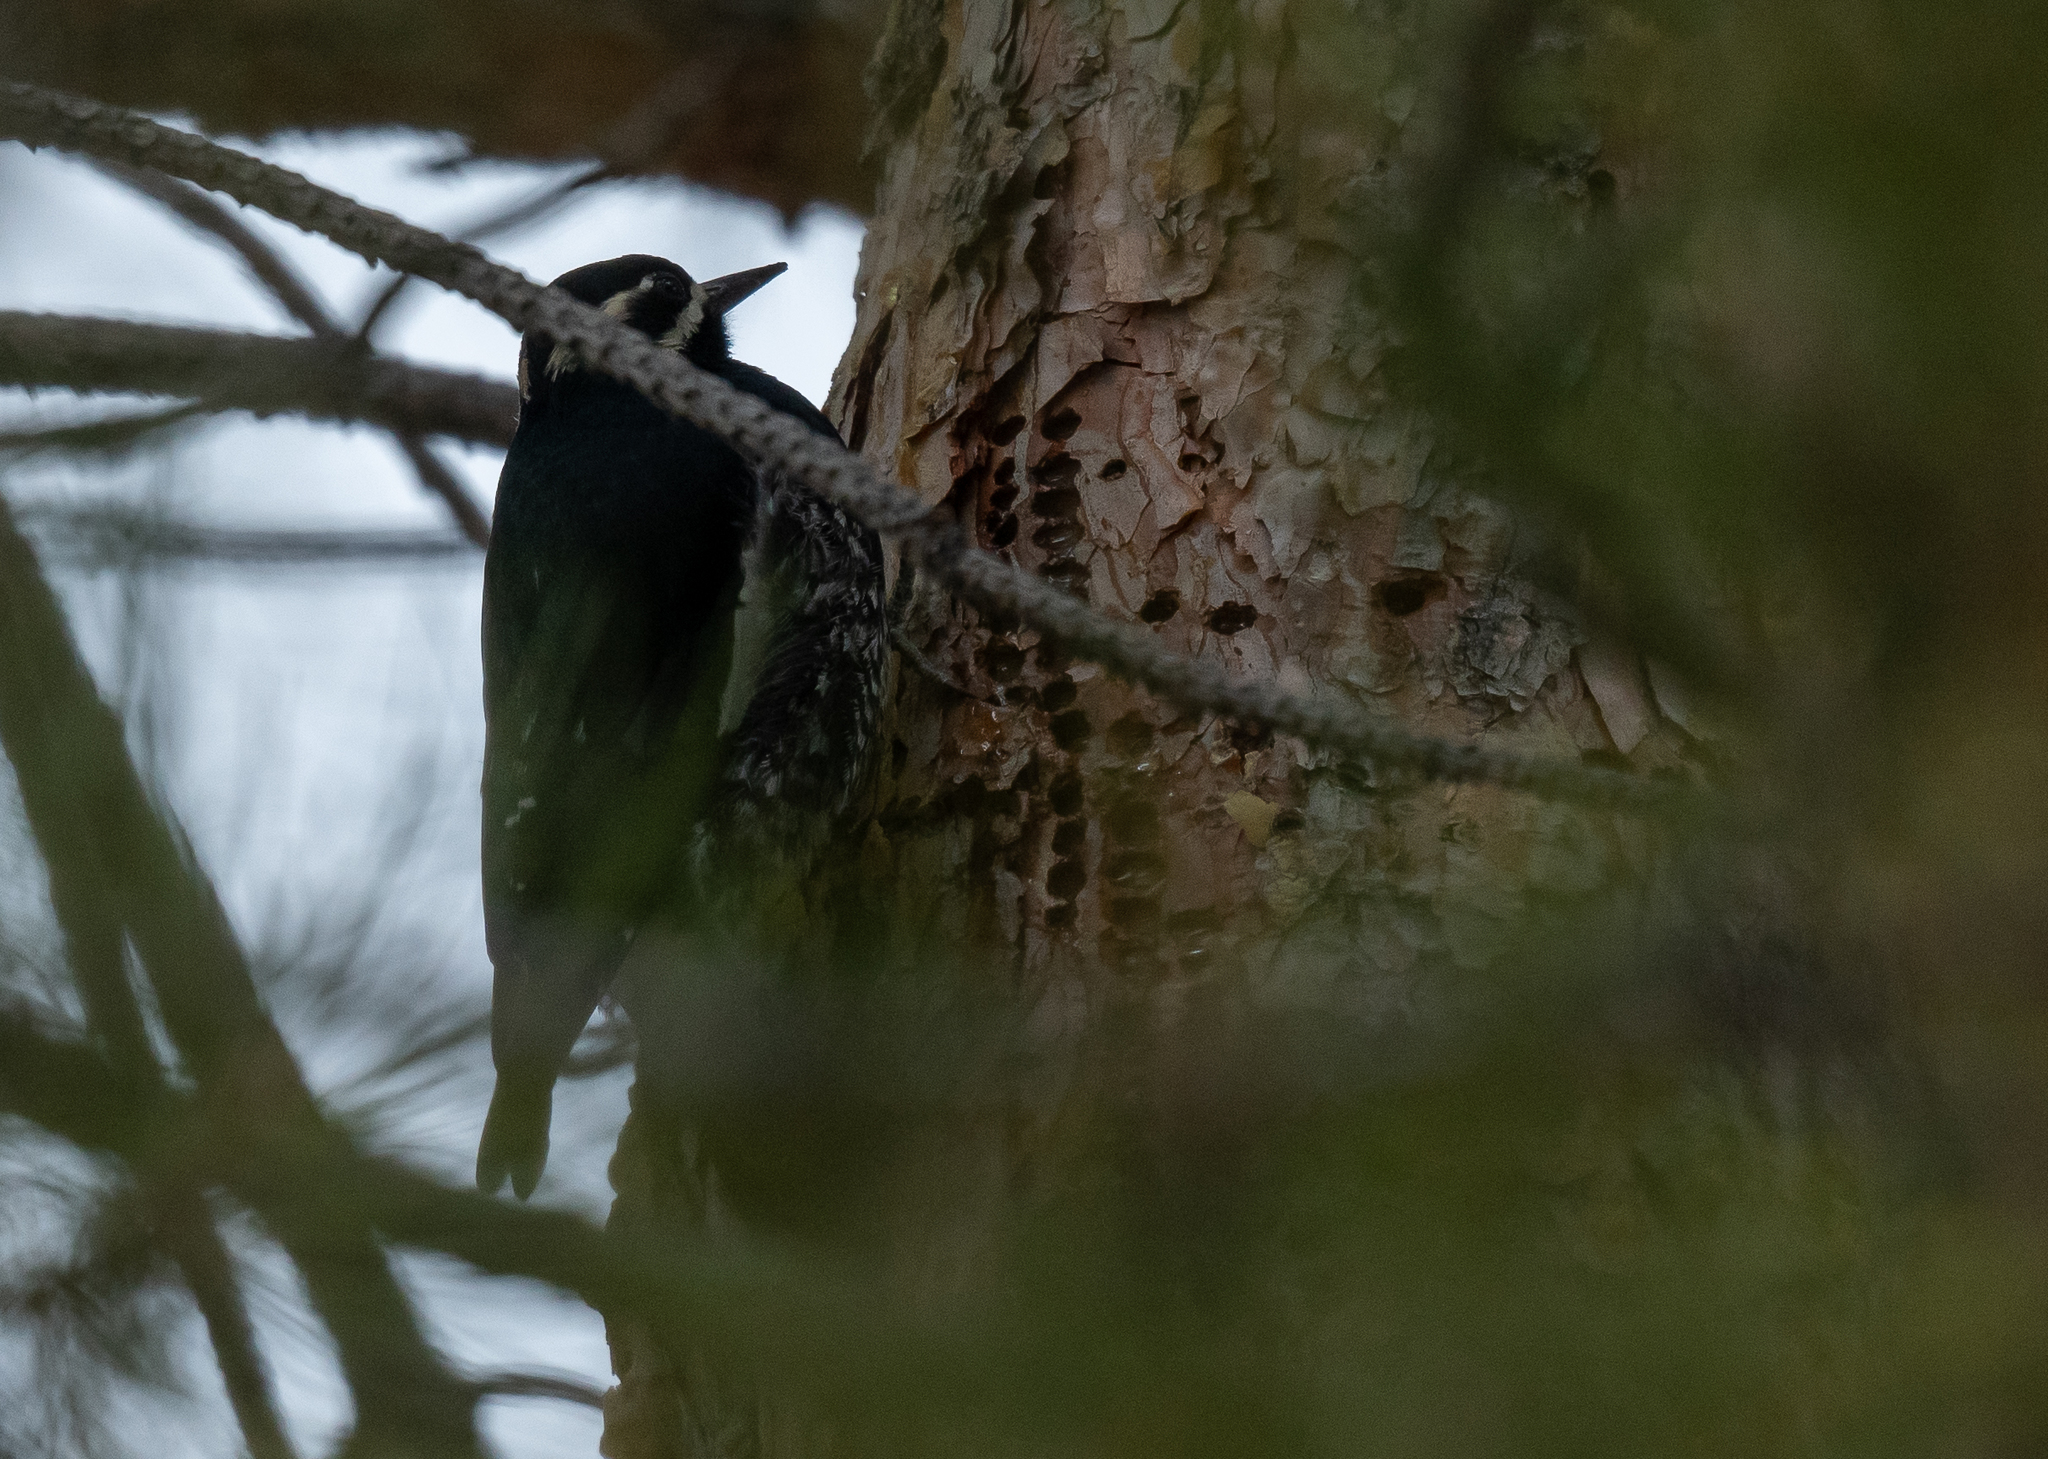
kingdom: Animalia
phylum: Chordata
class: Aves
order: Piciformes
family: Picidae
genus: Sphyrapicus
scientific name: Sphyrapicus thyroideus
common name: Williamson's sapsucker
